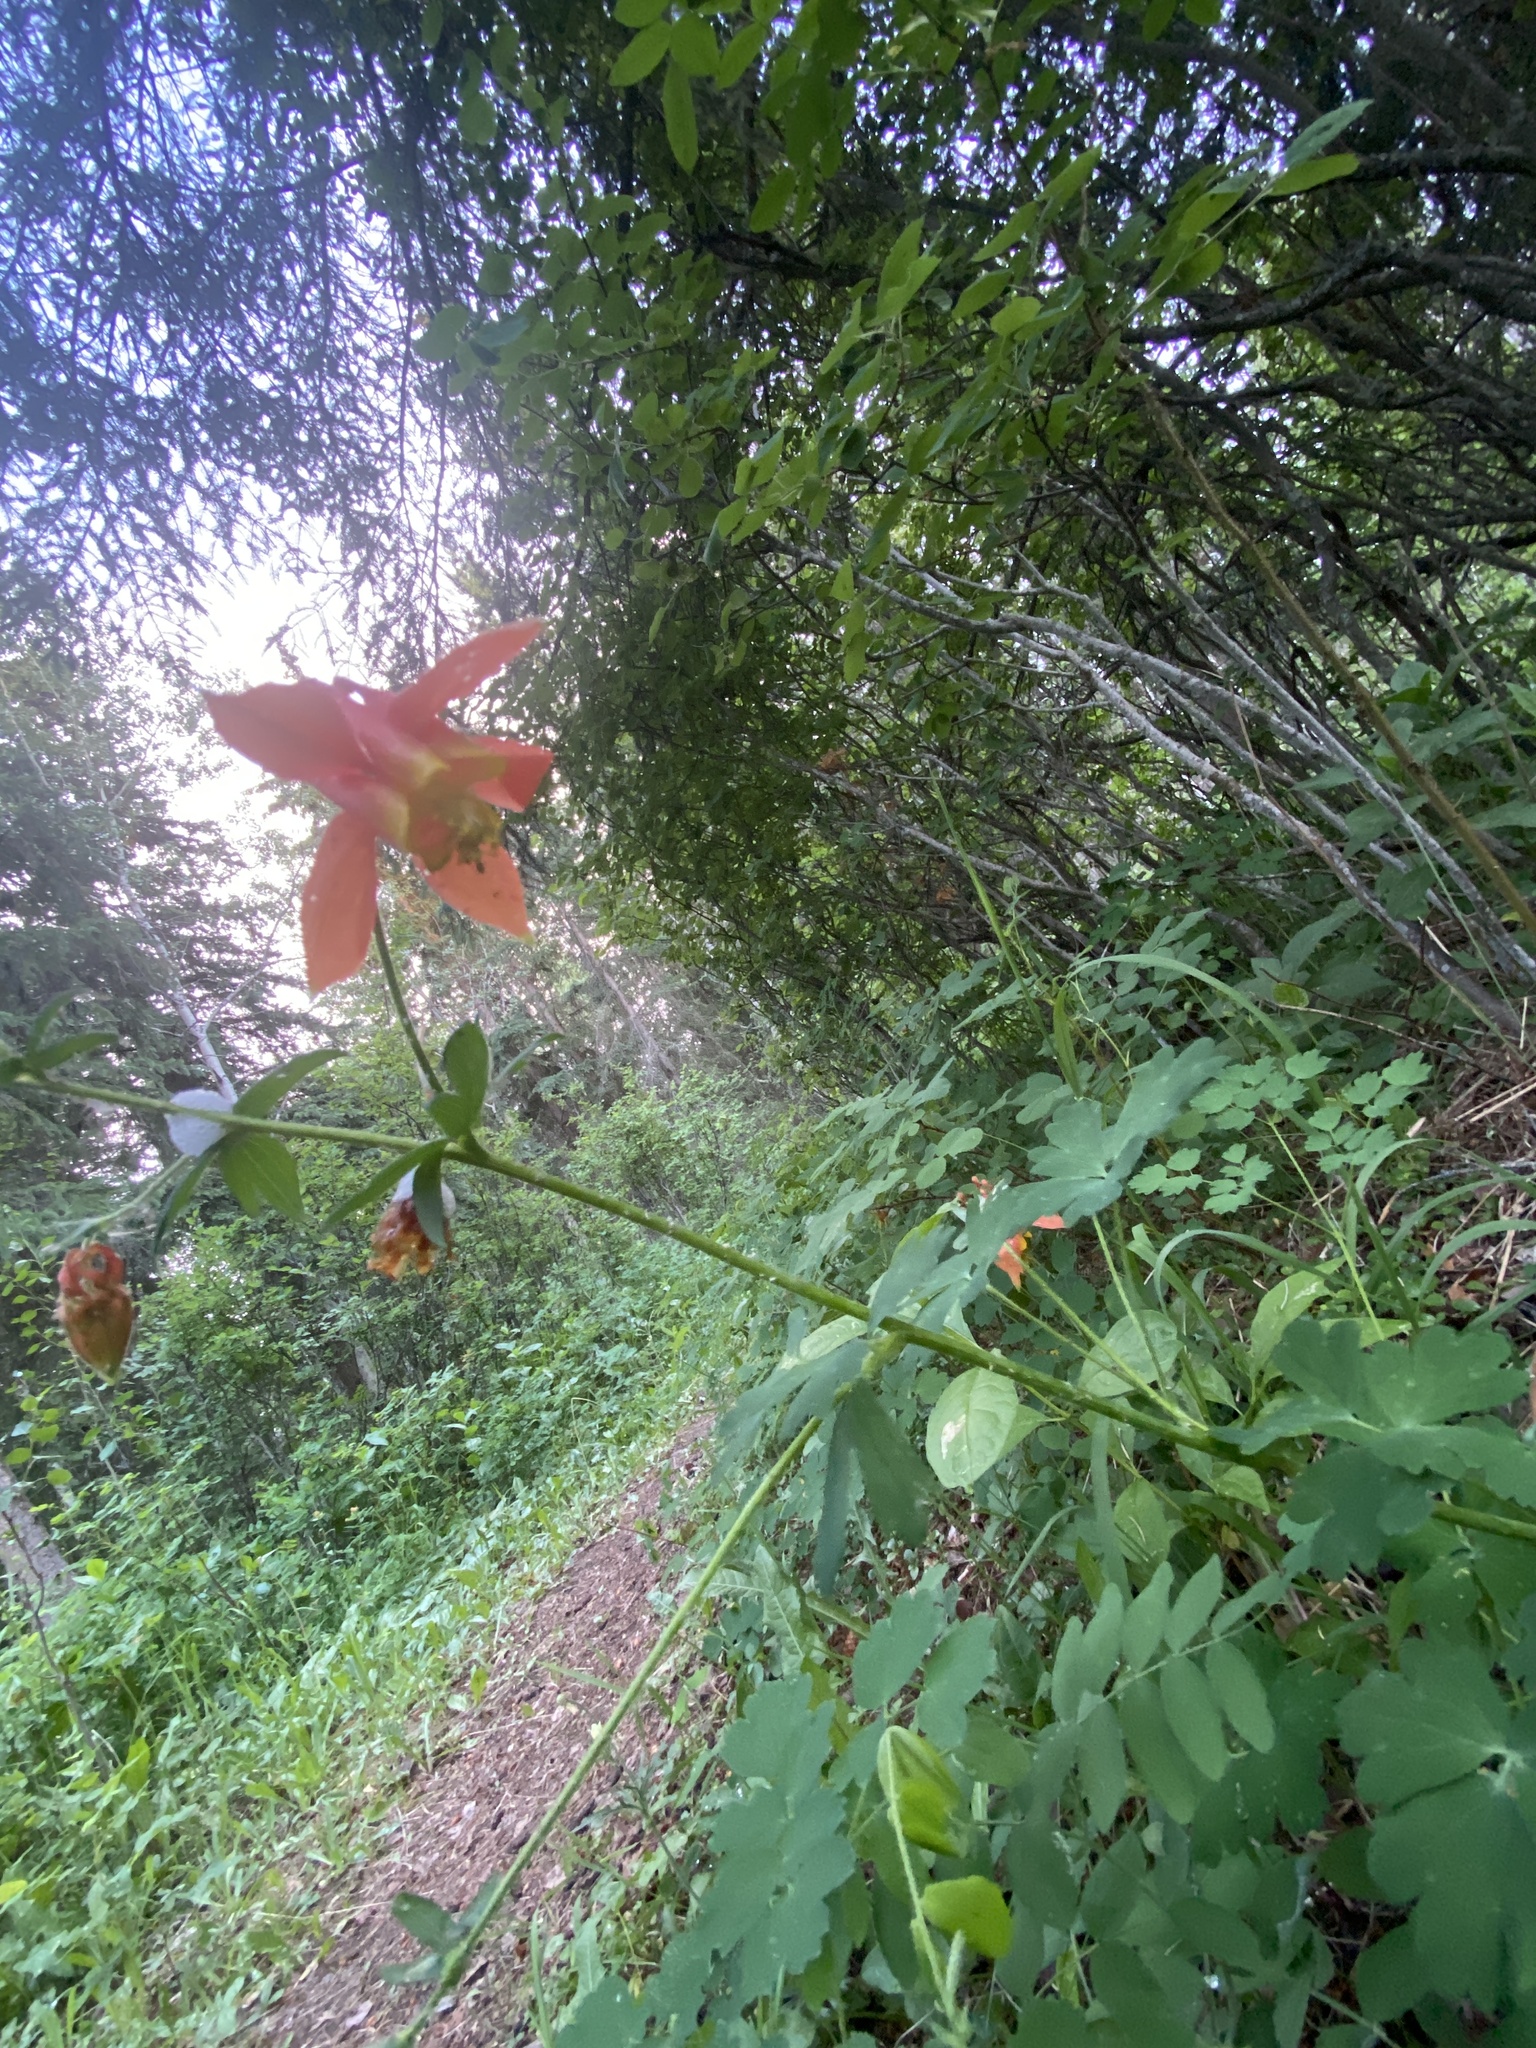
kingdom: Plantae
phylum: Tracheophyta
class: Magnoliopsida
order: Ranunculales
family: Ranunculaceae
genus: Aquilegia
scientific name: Aquilegia formosa
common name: Sitka columbine
